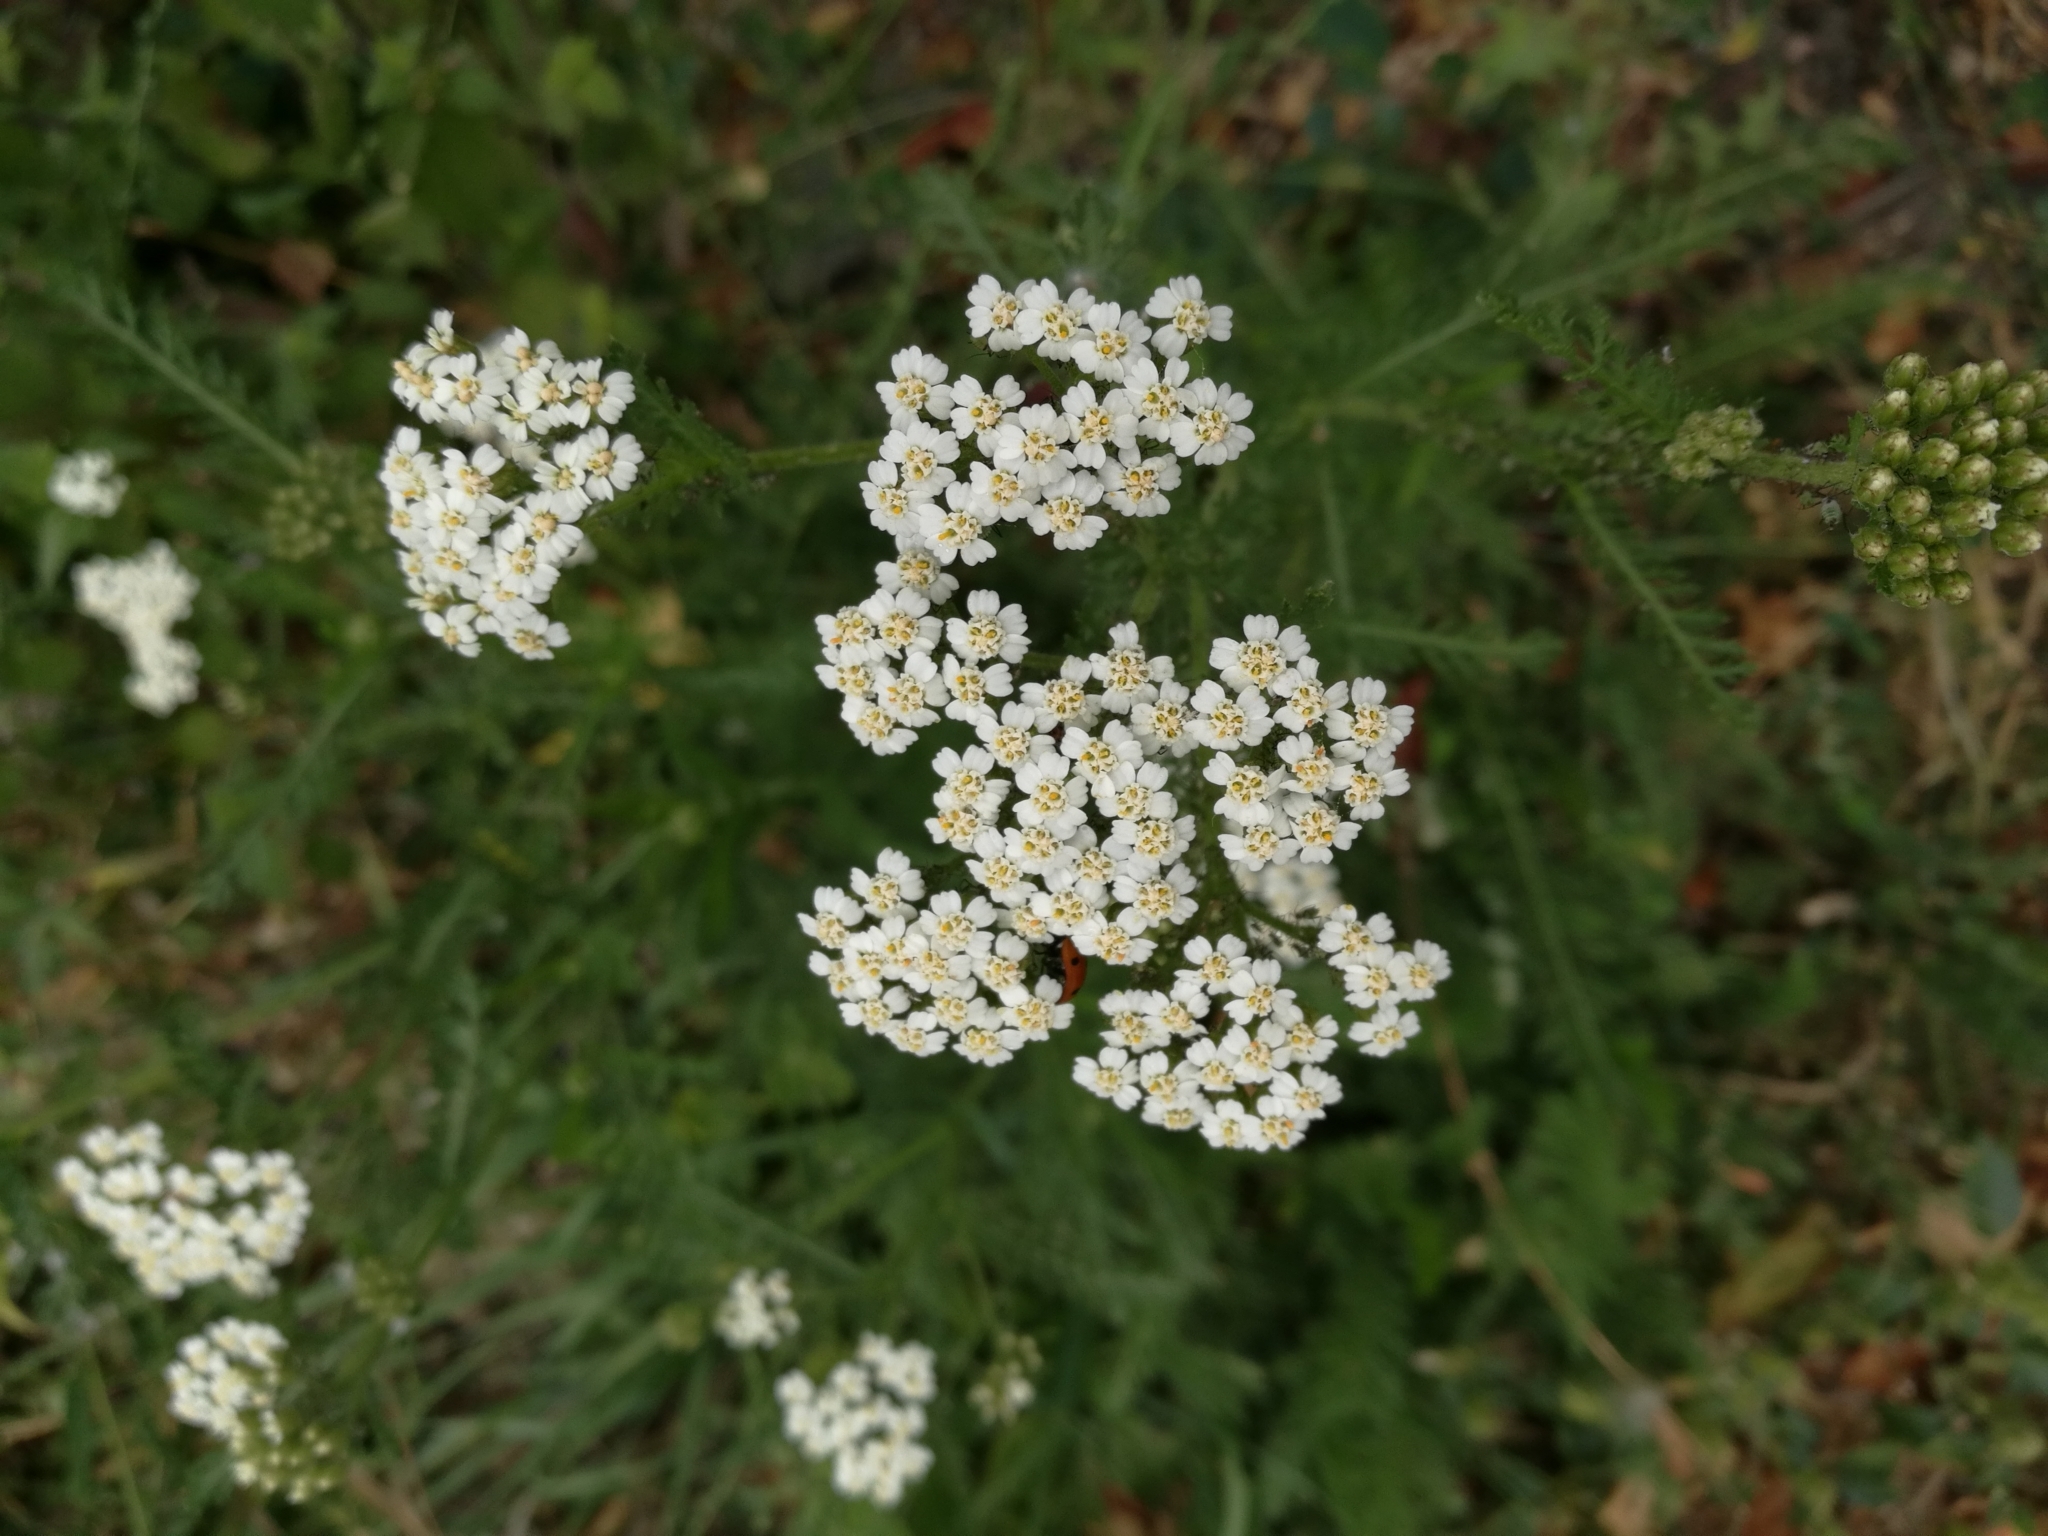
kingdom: Plantae
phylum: Tracheophyta
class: Magnoliopsida
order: Asterales
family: Asteraceae
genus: Achillea
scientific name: Achillea millefolium
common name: Yarrow
